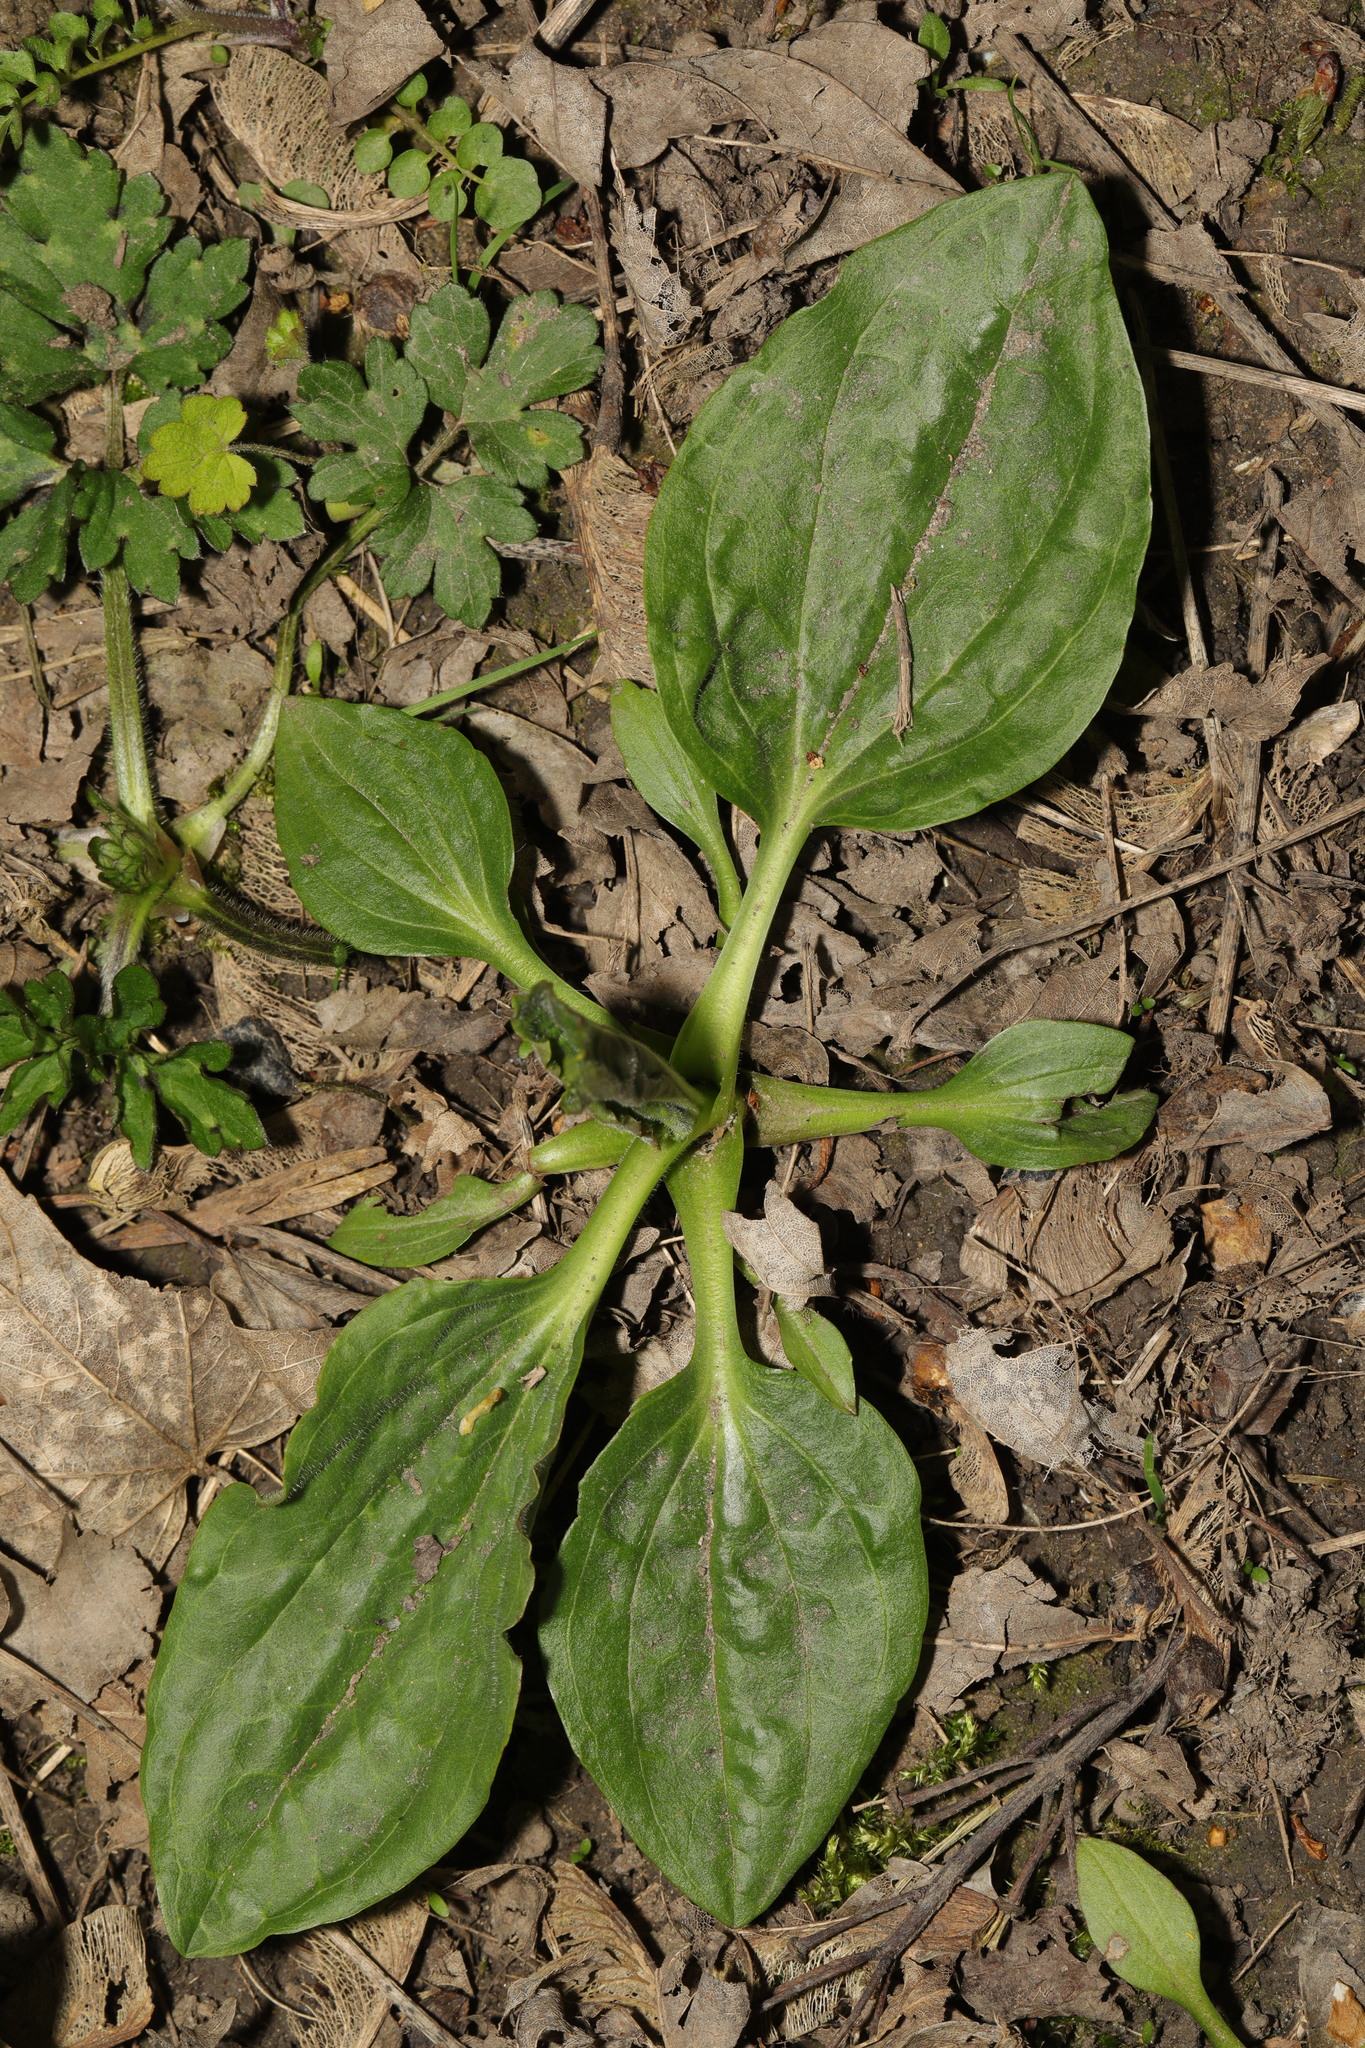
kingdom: Plantae
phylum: Tracheophyta
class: Magnoliopsida
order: Lamiales
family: Plantaginaceae
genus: Plantago
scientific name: Plantago major
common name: Common plantain
